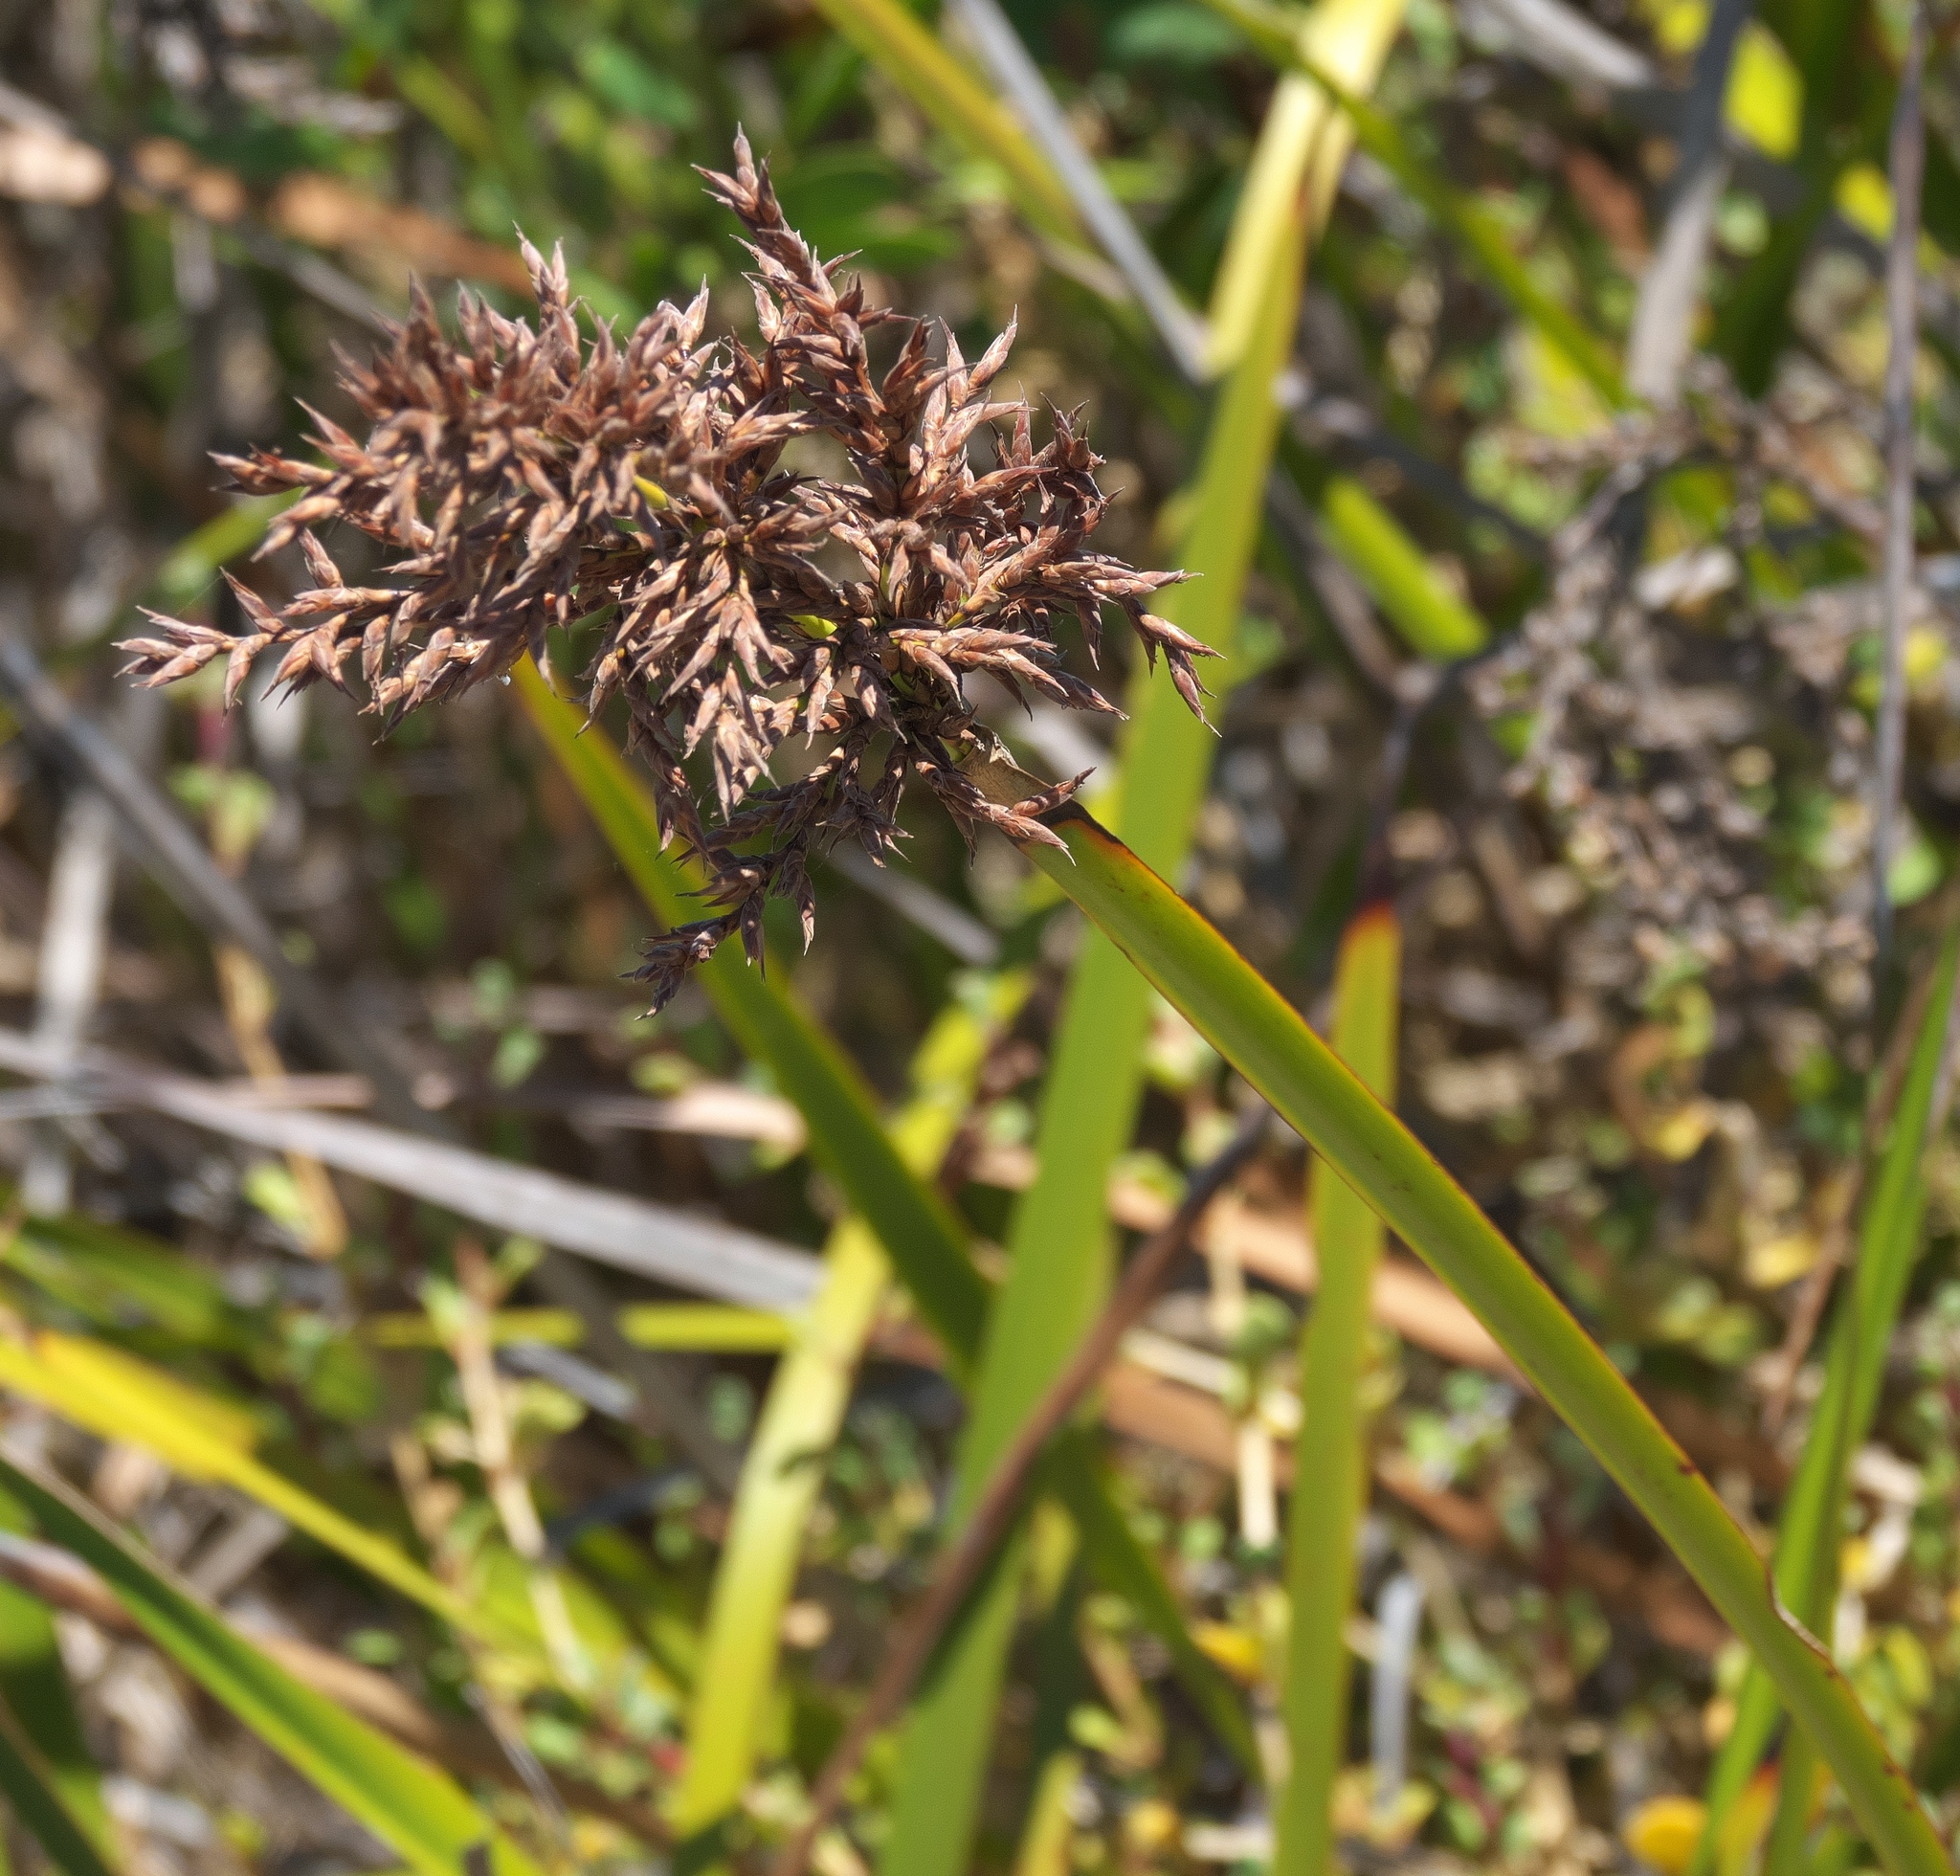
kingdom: Plantae
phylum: Tracheophyta
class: Liliopsida
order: Poales
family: Cyperaceae
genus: Lepidosperma
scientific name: Lepidosperma gladiatum
